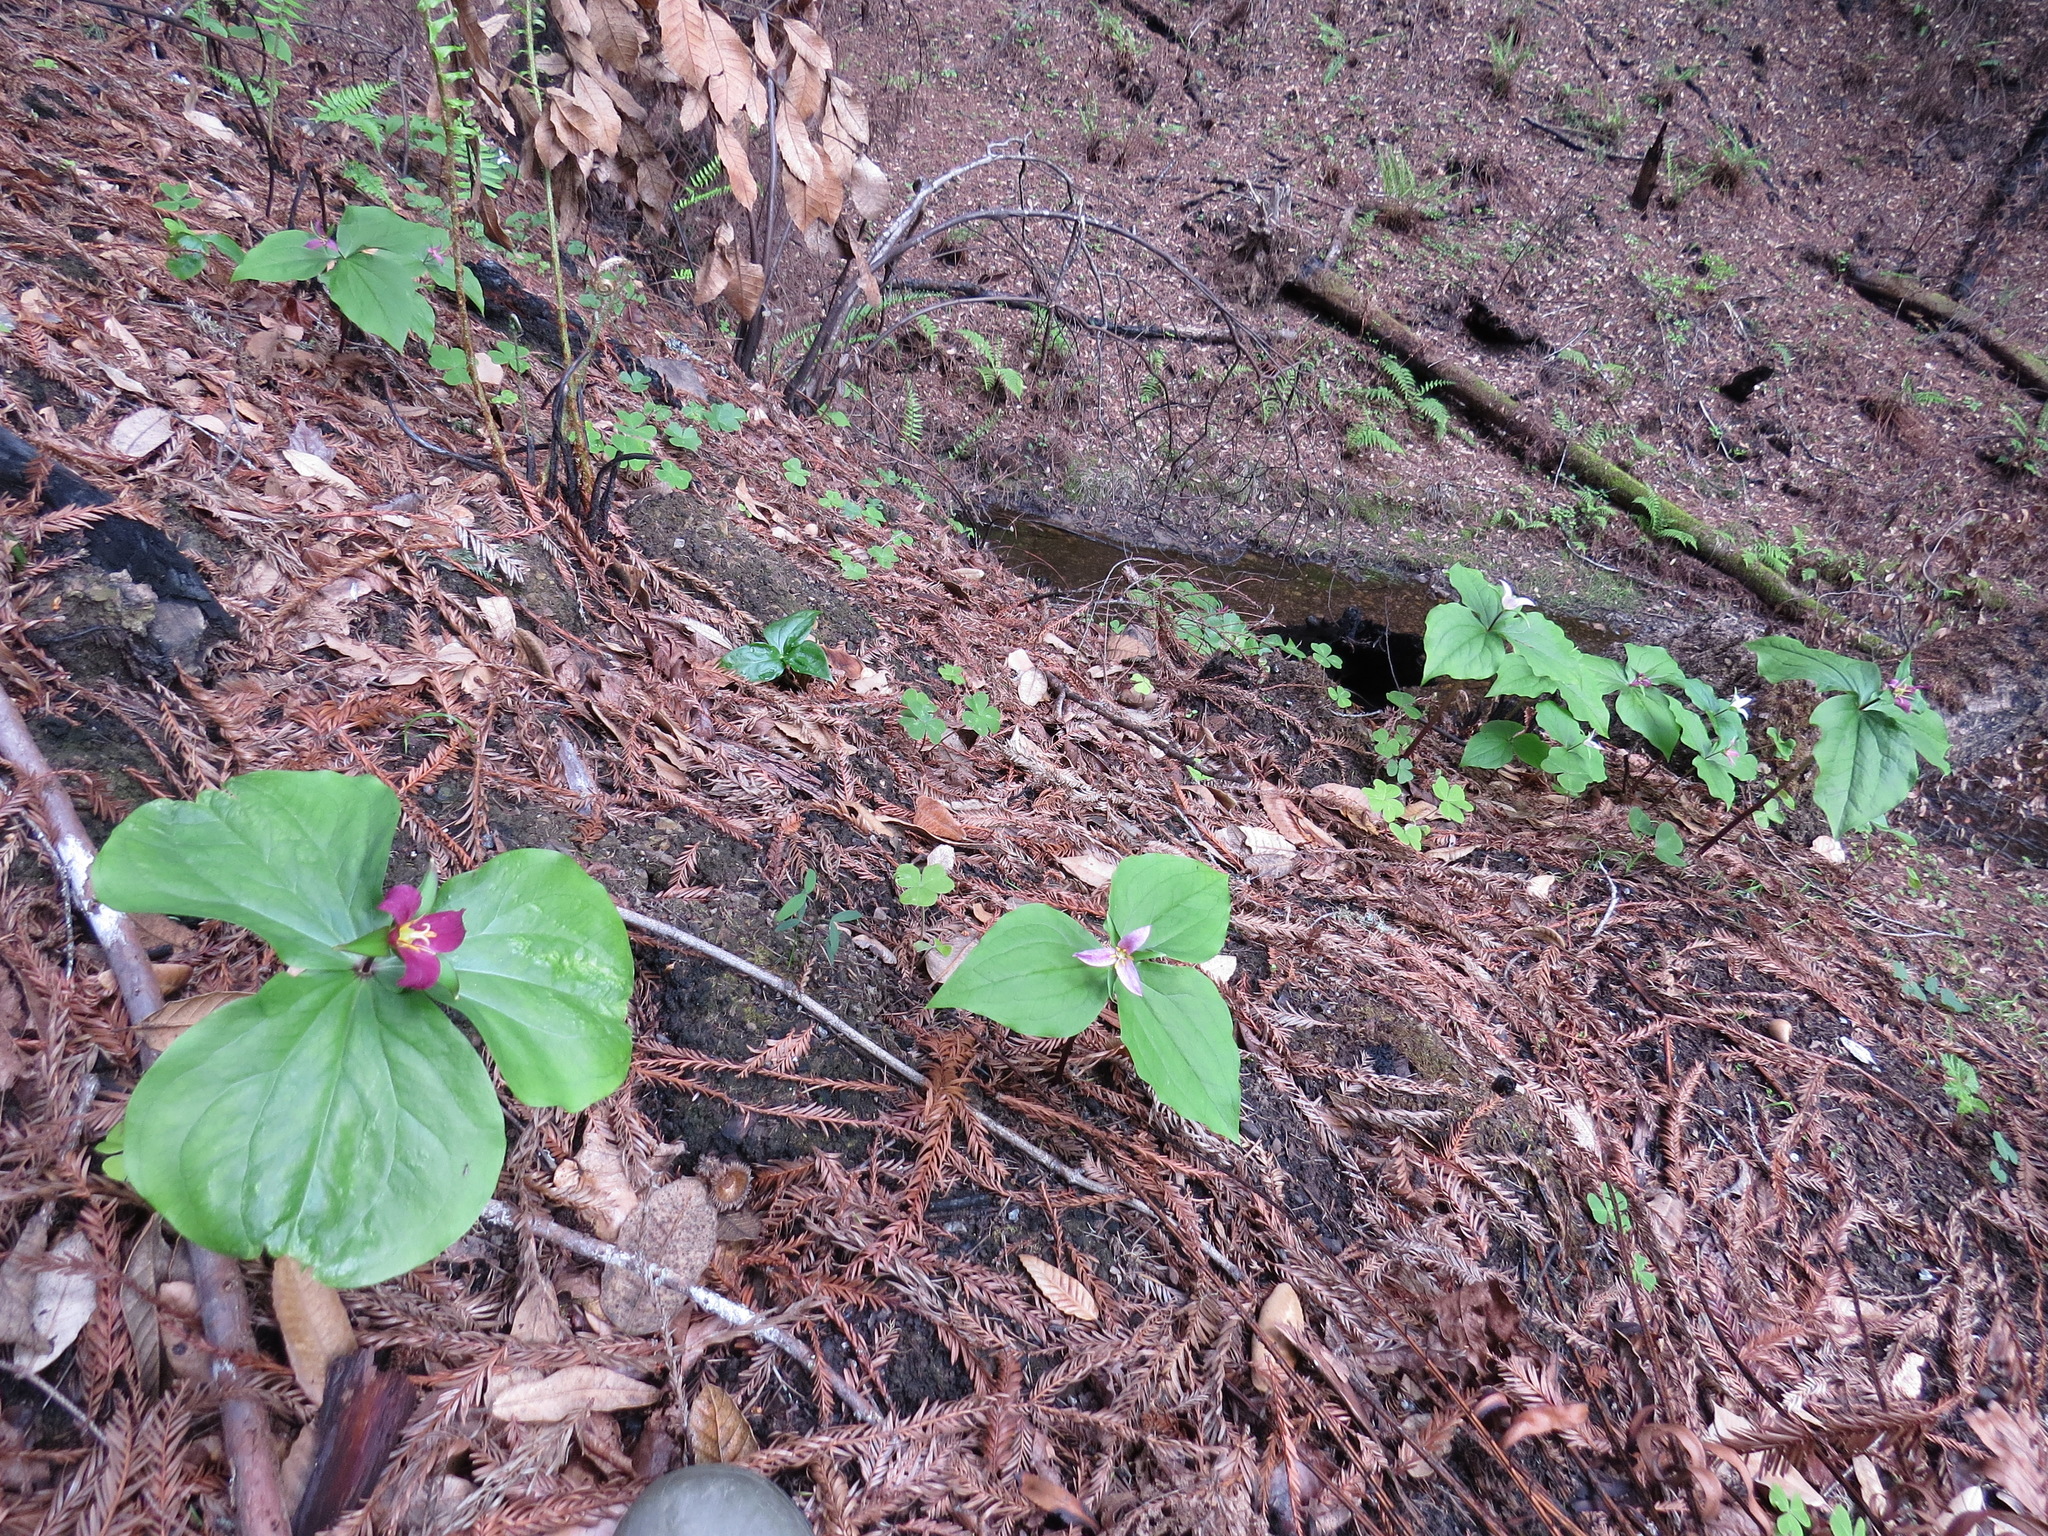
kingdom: Plantae
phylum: Tracheophyta
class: Liliopsida
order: Liliales
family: Melanthiaceae
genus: Trillium
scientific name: Trillium ovatum
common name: Pacific trillium
